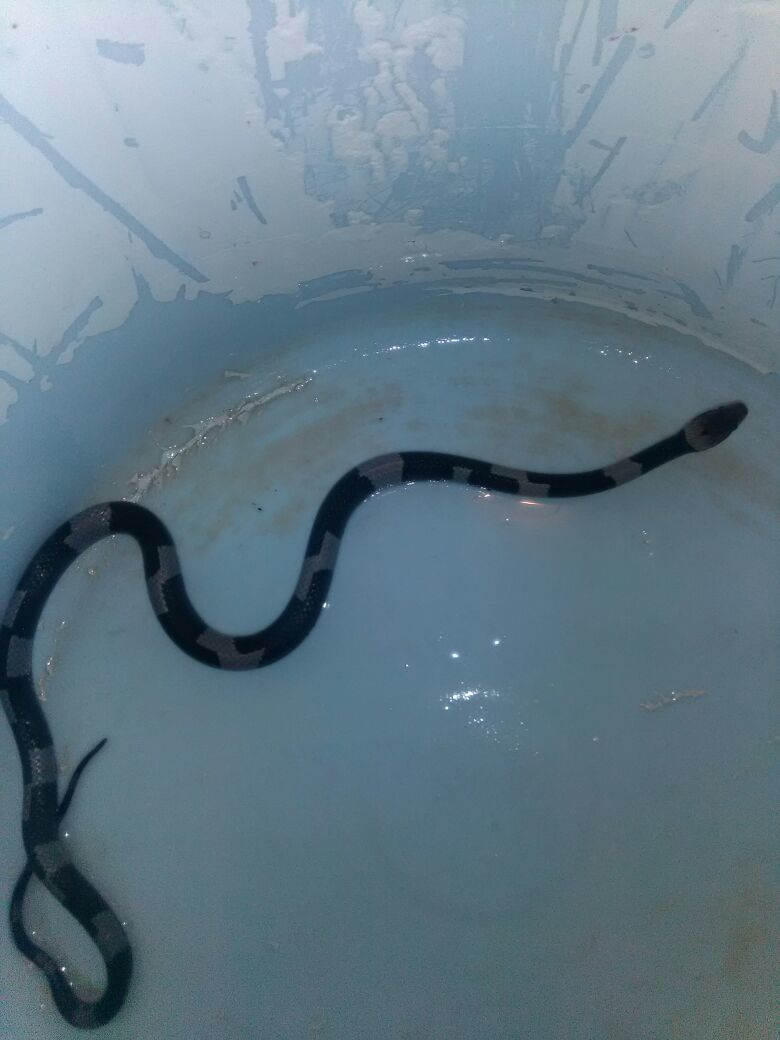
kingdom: Animalia
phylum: Chordata
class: Squamata
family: Colubridae
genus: Leptodeira
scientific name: Leptodeira nigrofasciata
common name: Black-banded cat-eyed snake
